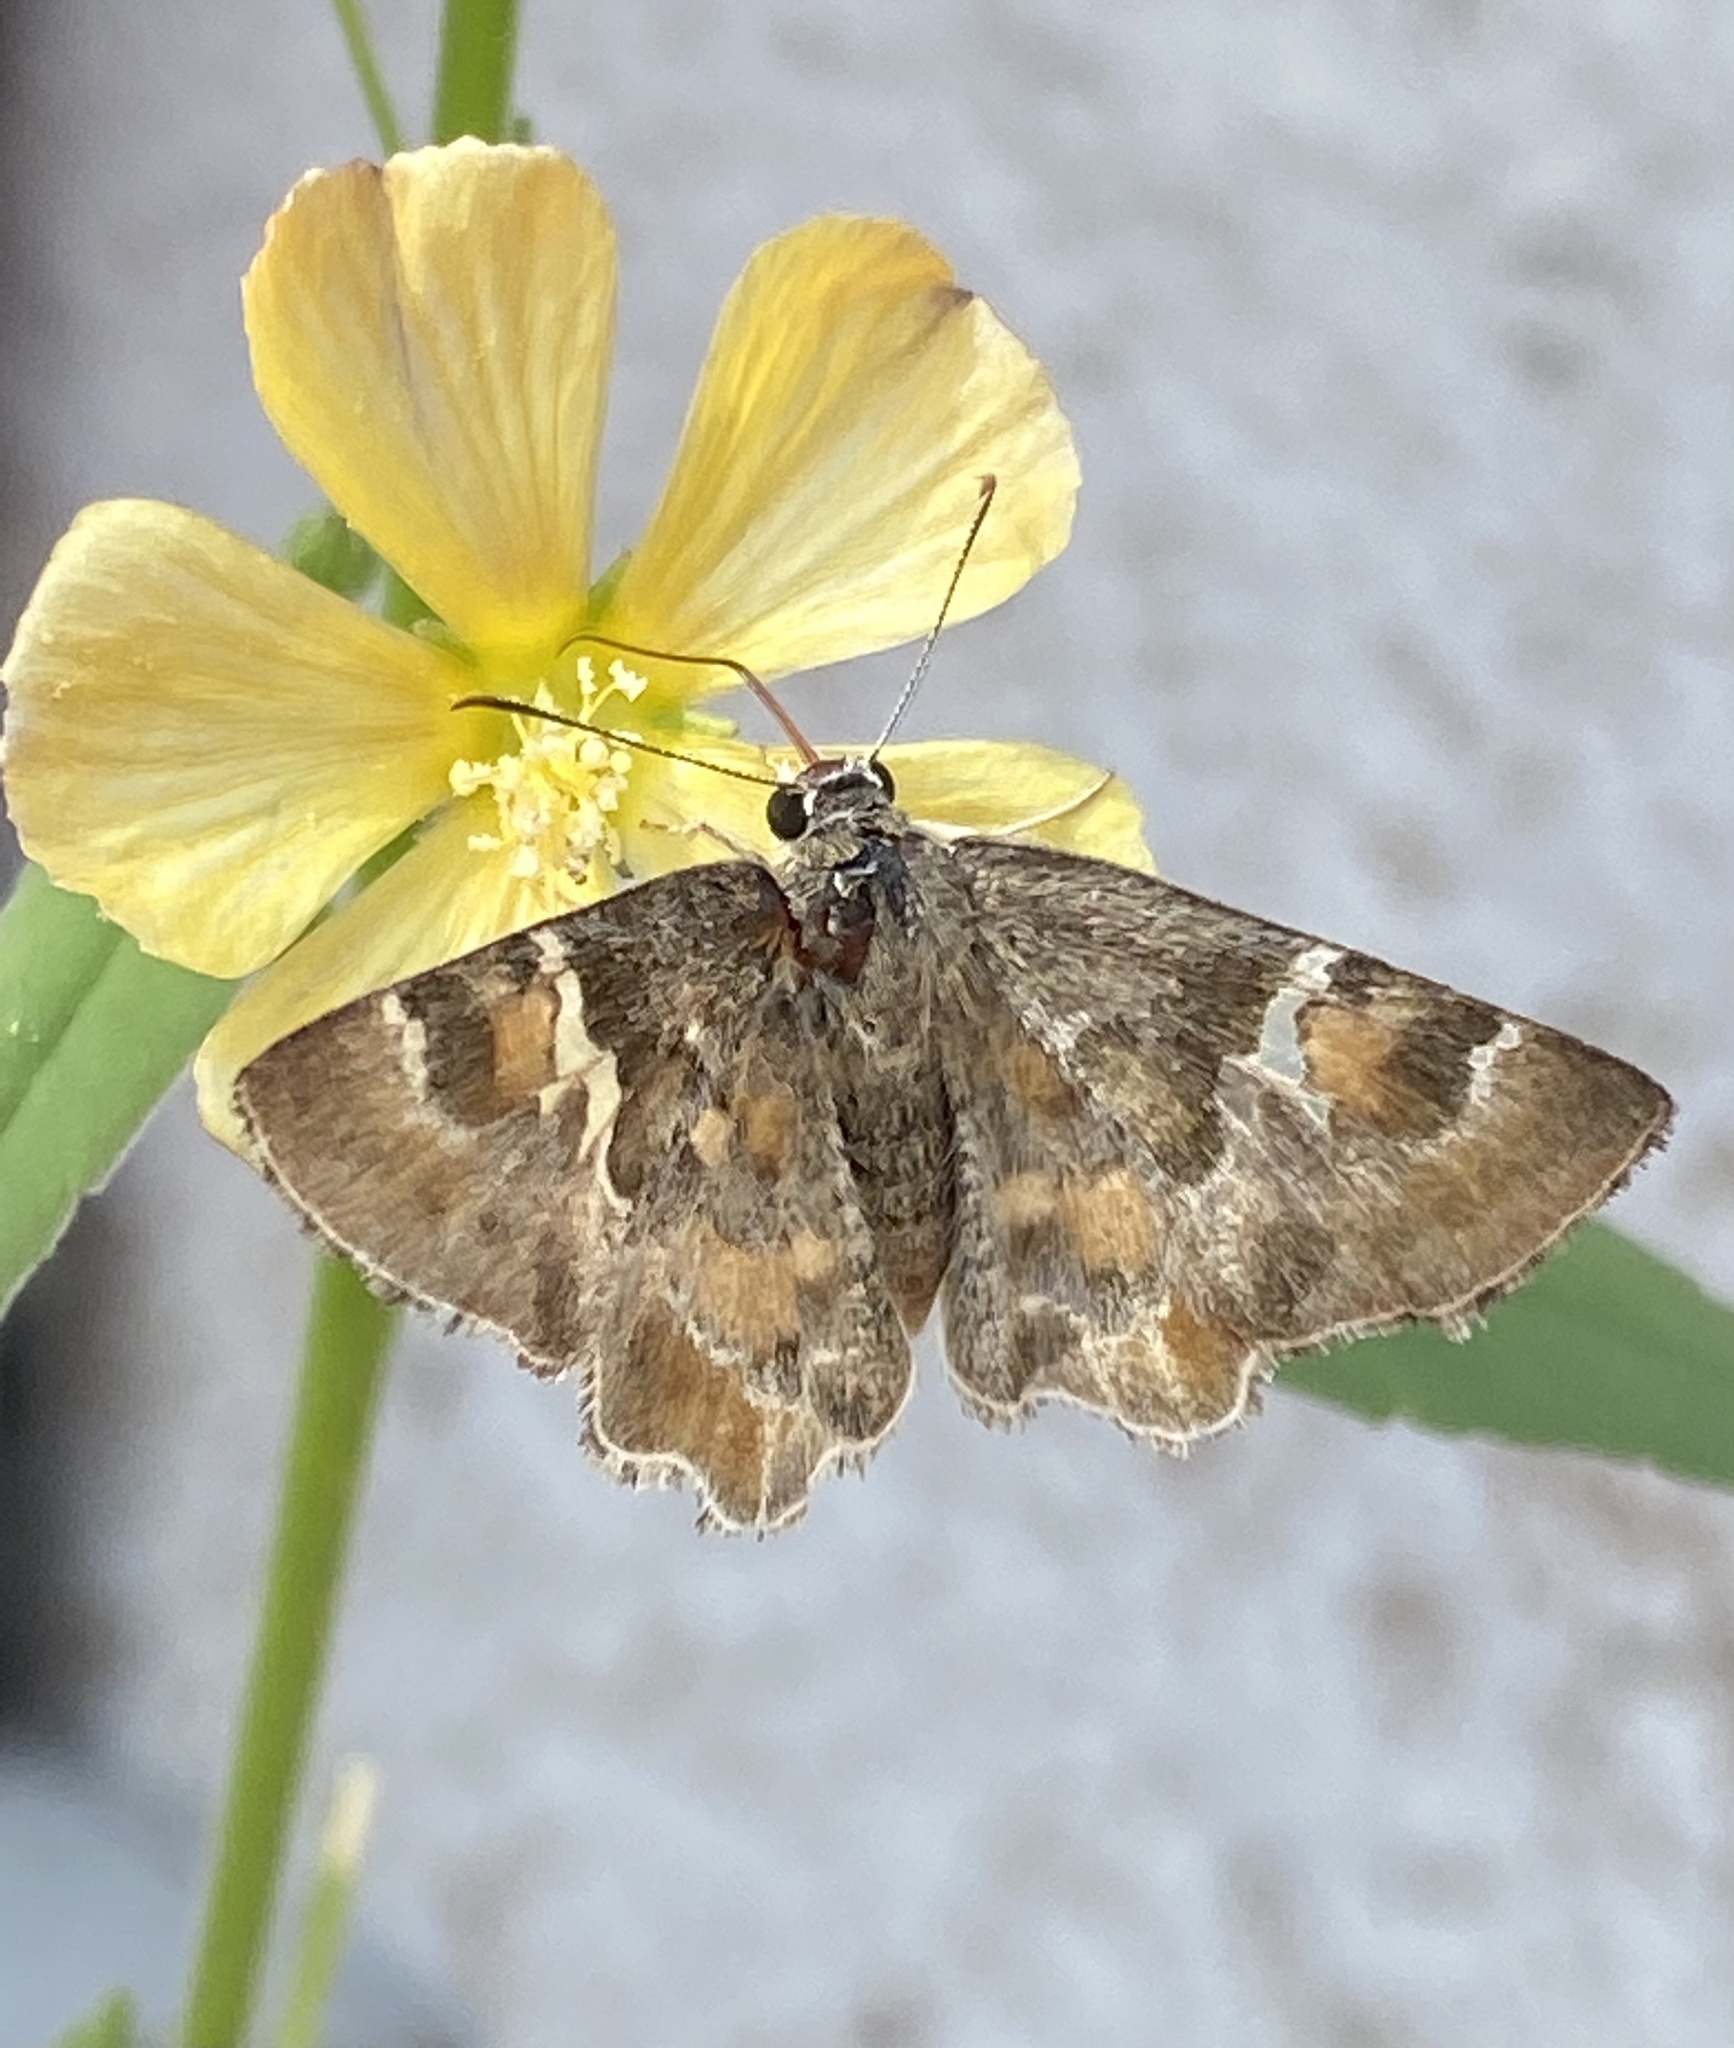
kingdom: Animalia
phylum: Arthropoda
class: Insecta
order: Lepidoptera
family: Hesperiidae
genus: Systasea
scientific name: Systasea zampa
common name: Arizona powdered-skipper
